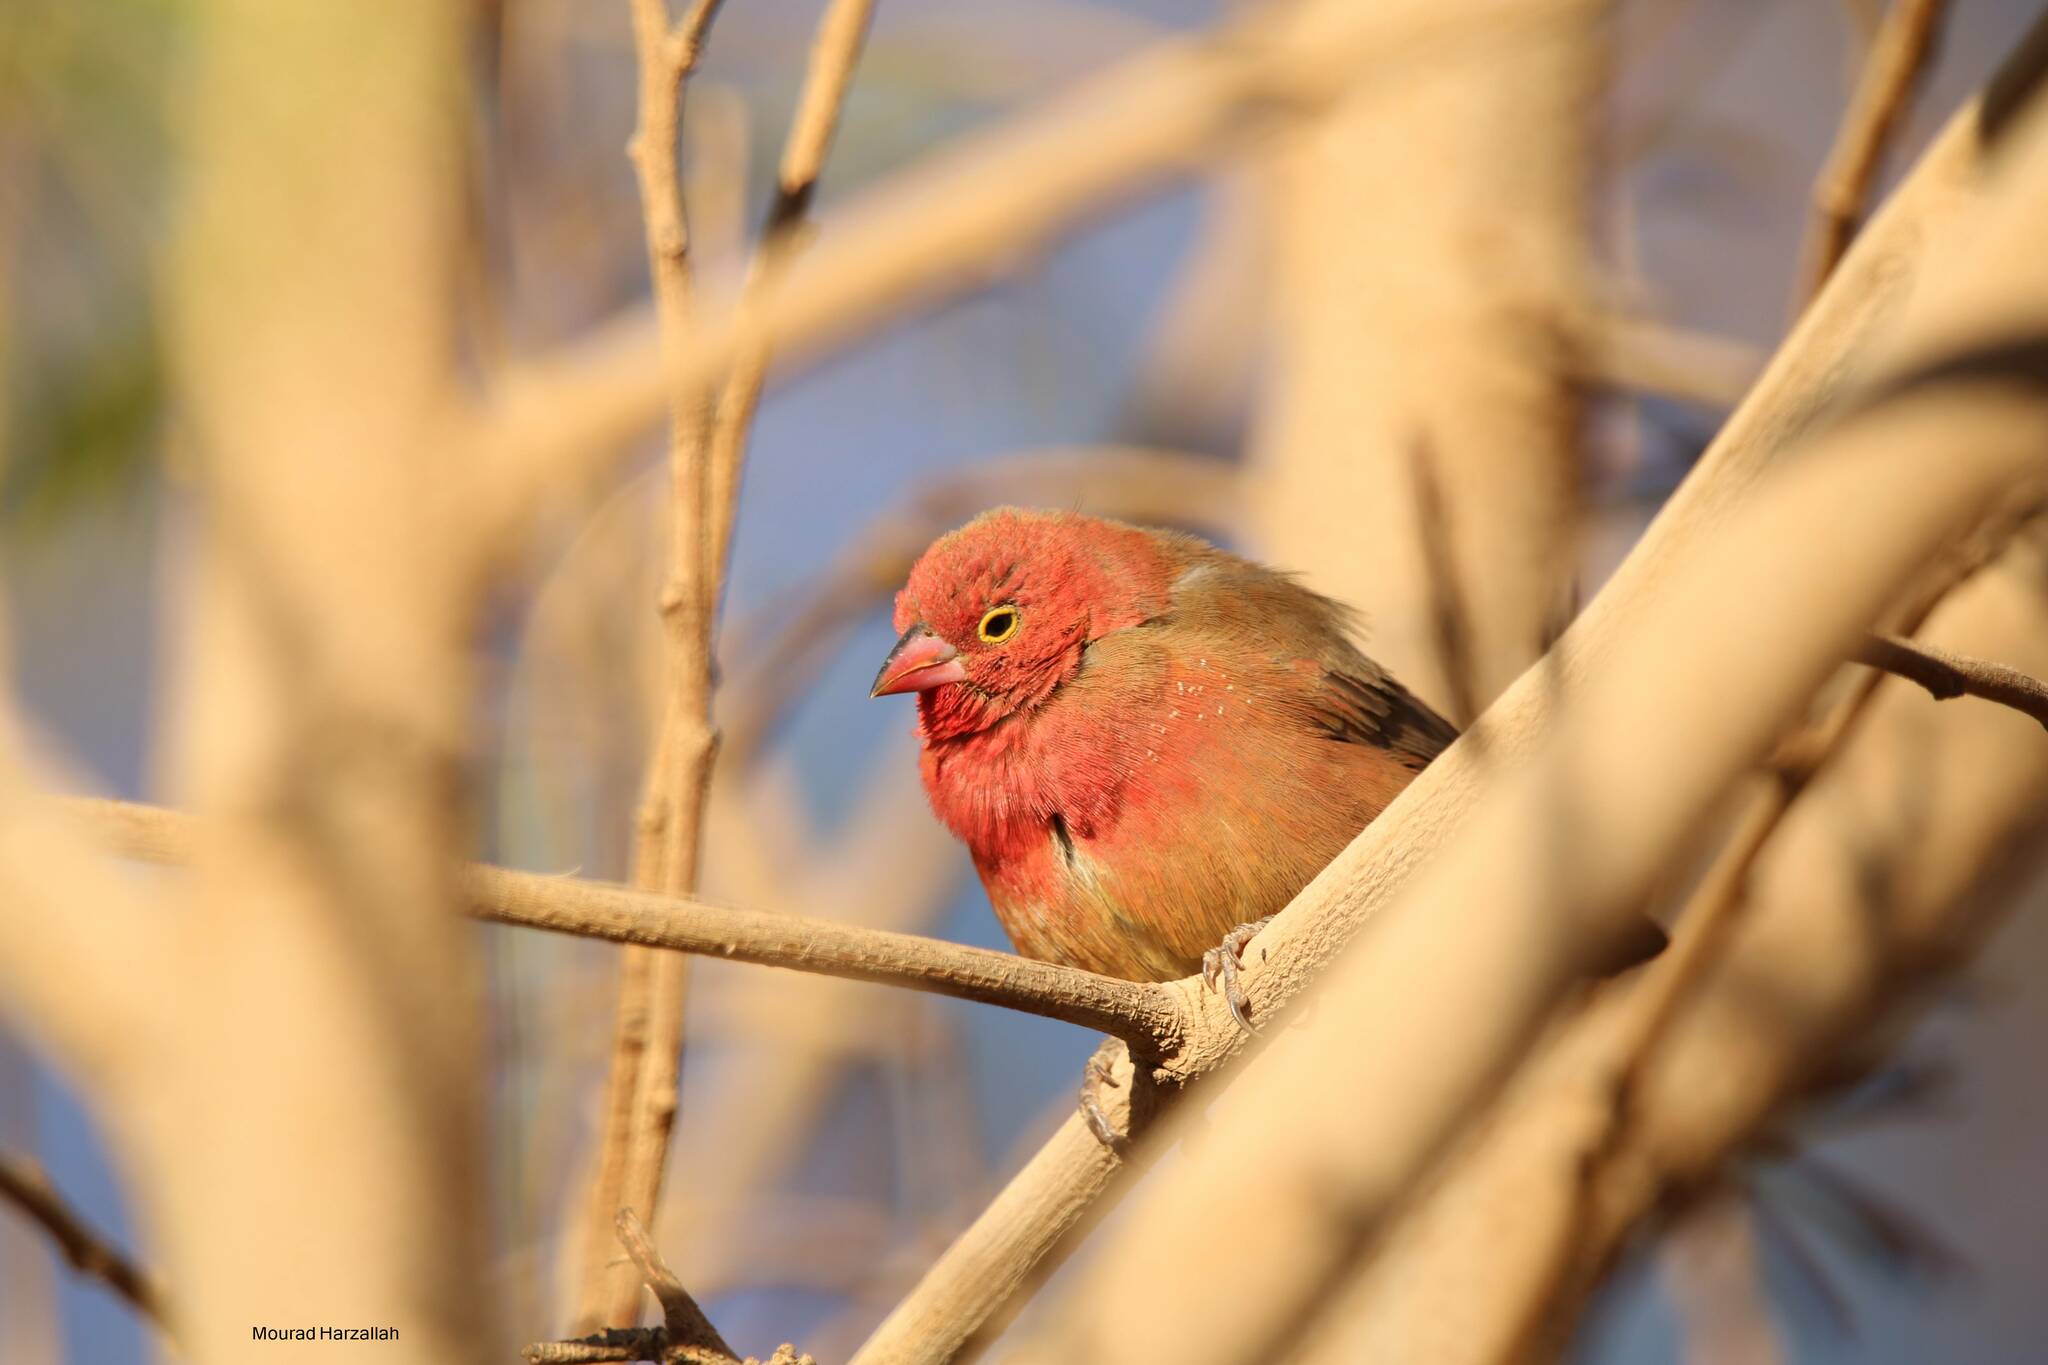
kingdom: Animalia
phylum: Chordata
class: Aves
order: Passeriformes
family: Estrildidae
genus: Lagonosticta
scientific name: Lagonosticta senegala
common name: Red-billed firefinch
